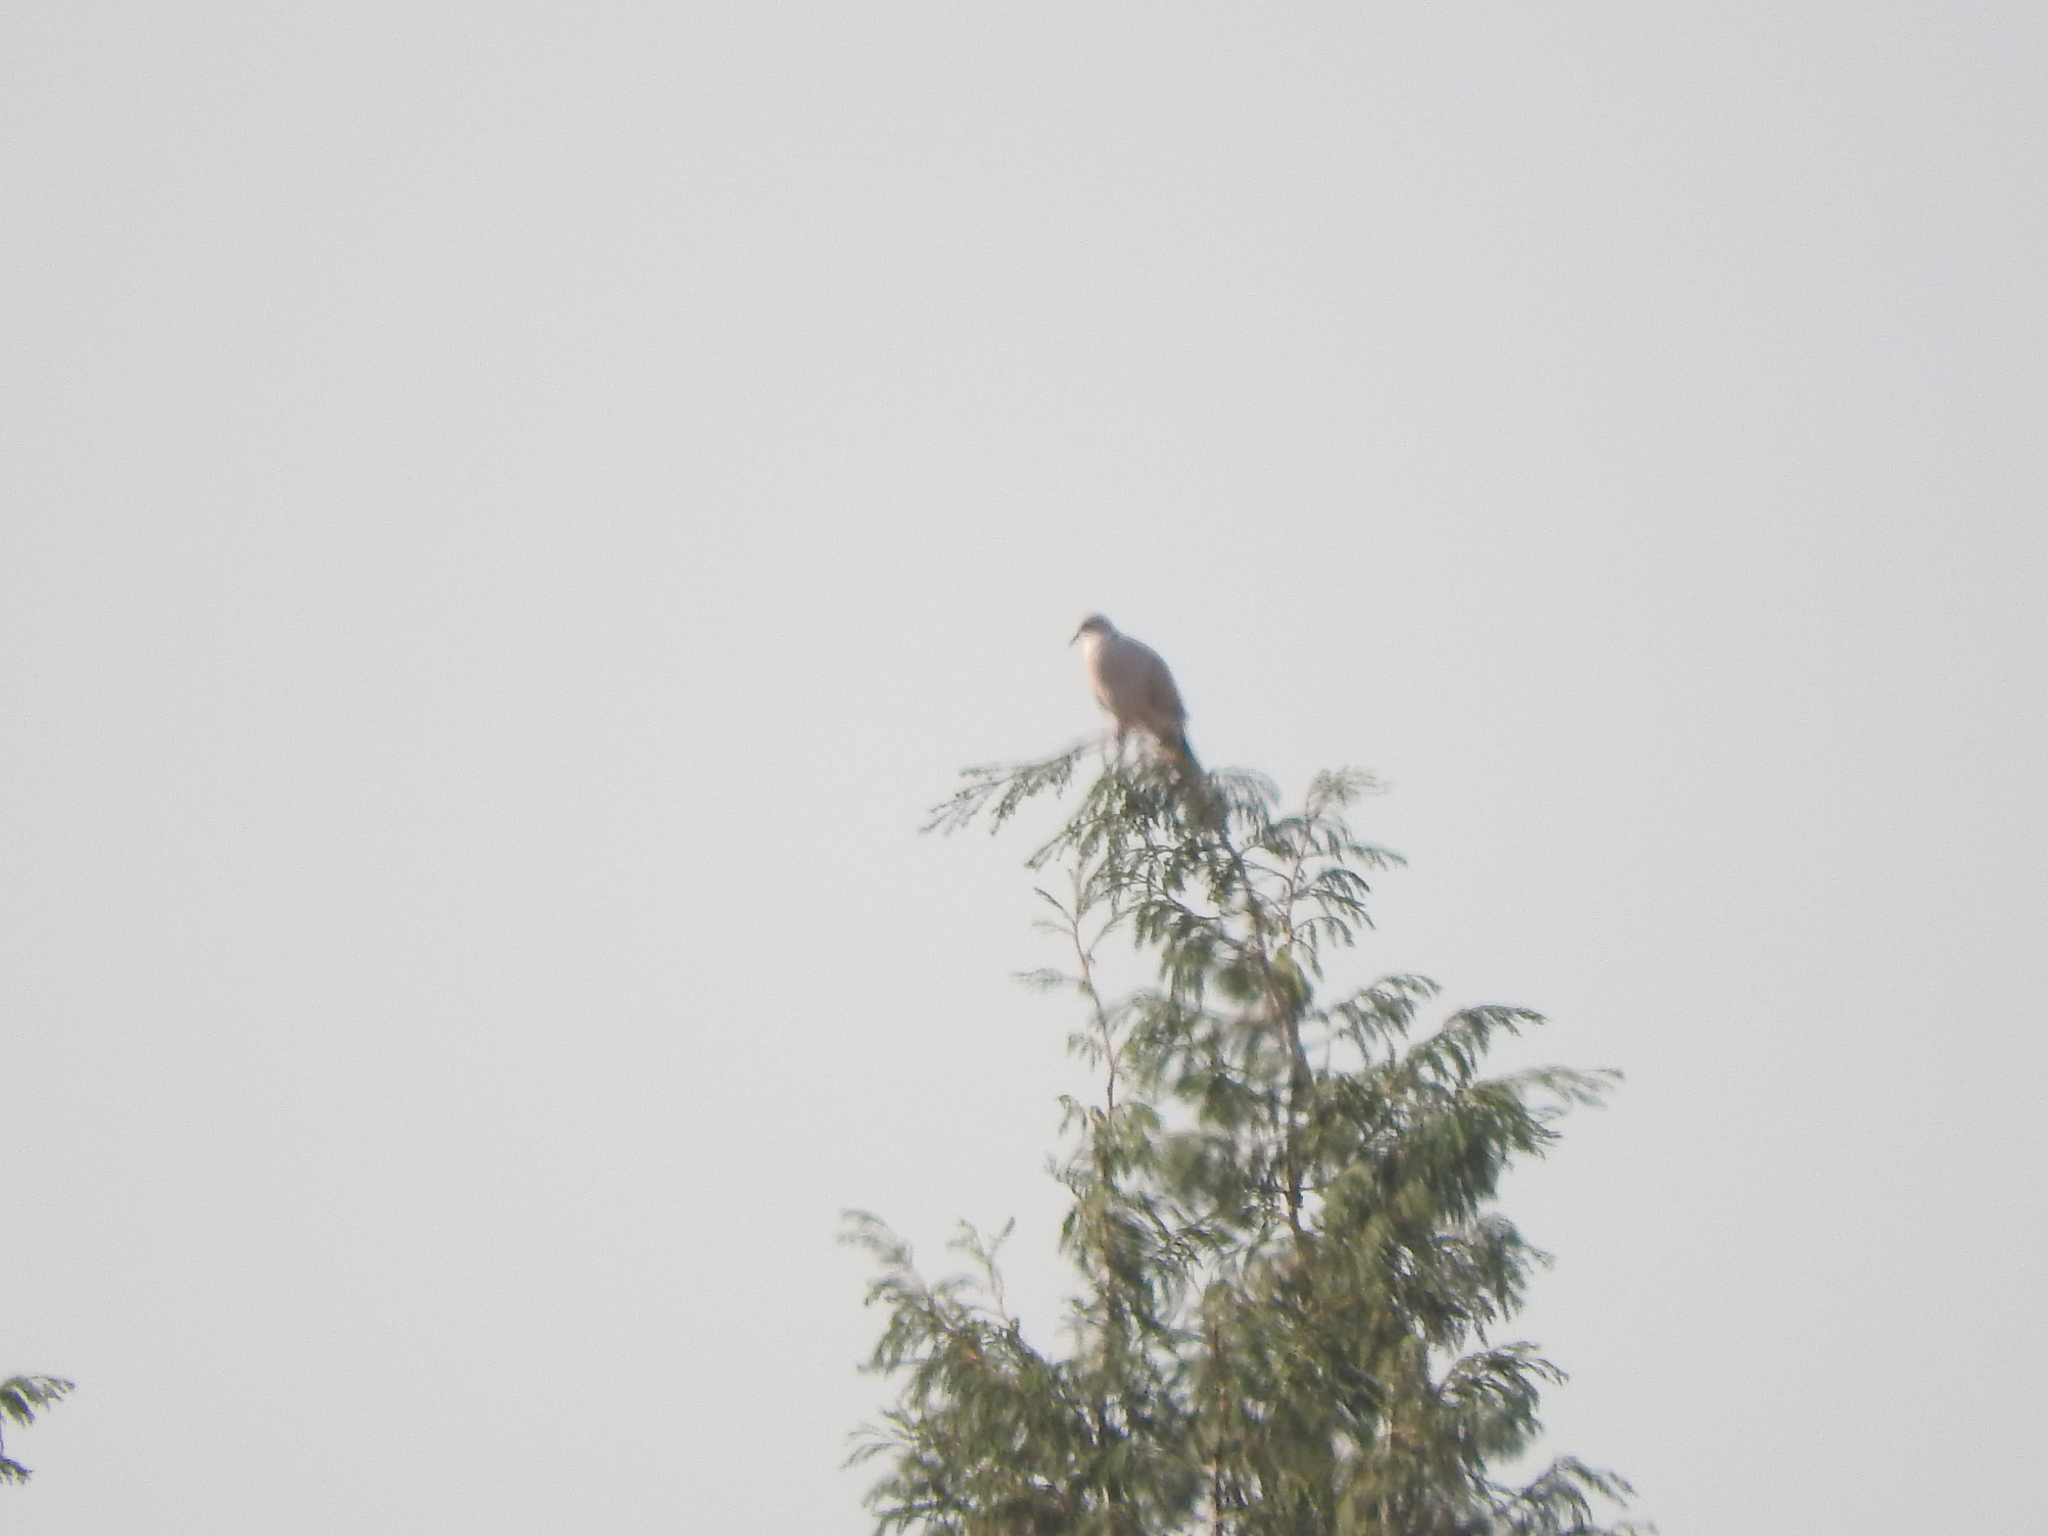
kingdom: Animalia
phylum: Chordata
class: Aves
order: Columbiformes
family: Columbidae
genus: Streptopelia
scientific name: Streptopelia decaocto
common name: Eurasian collared dove
